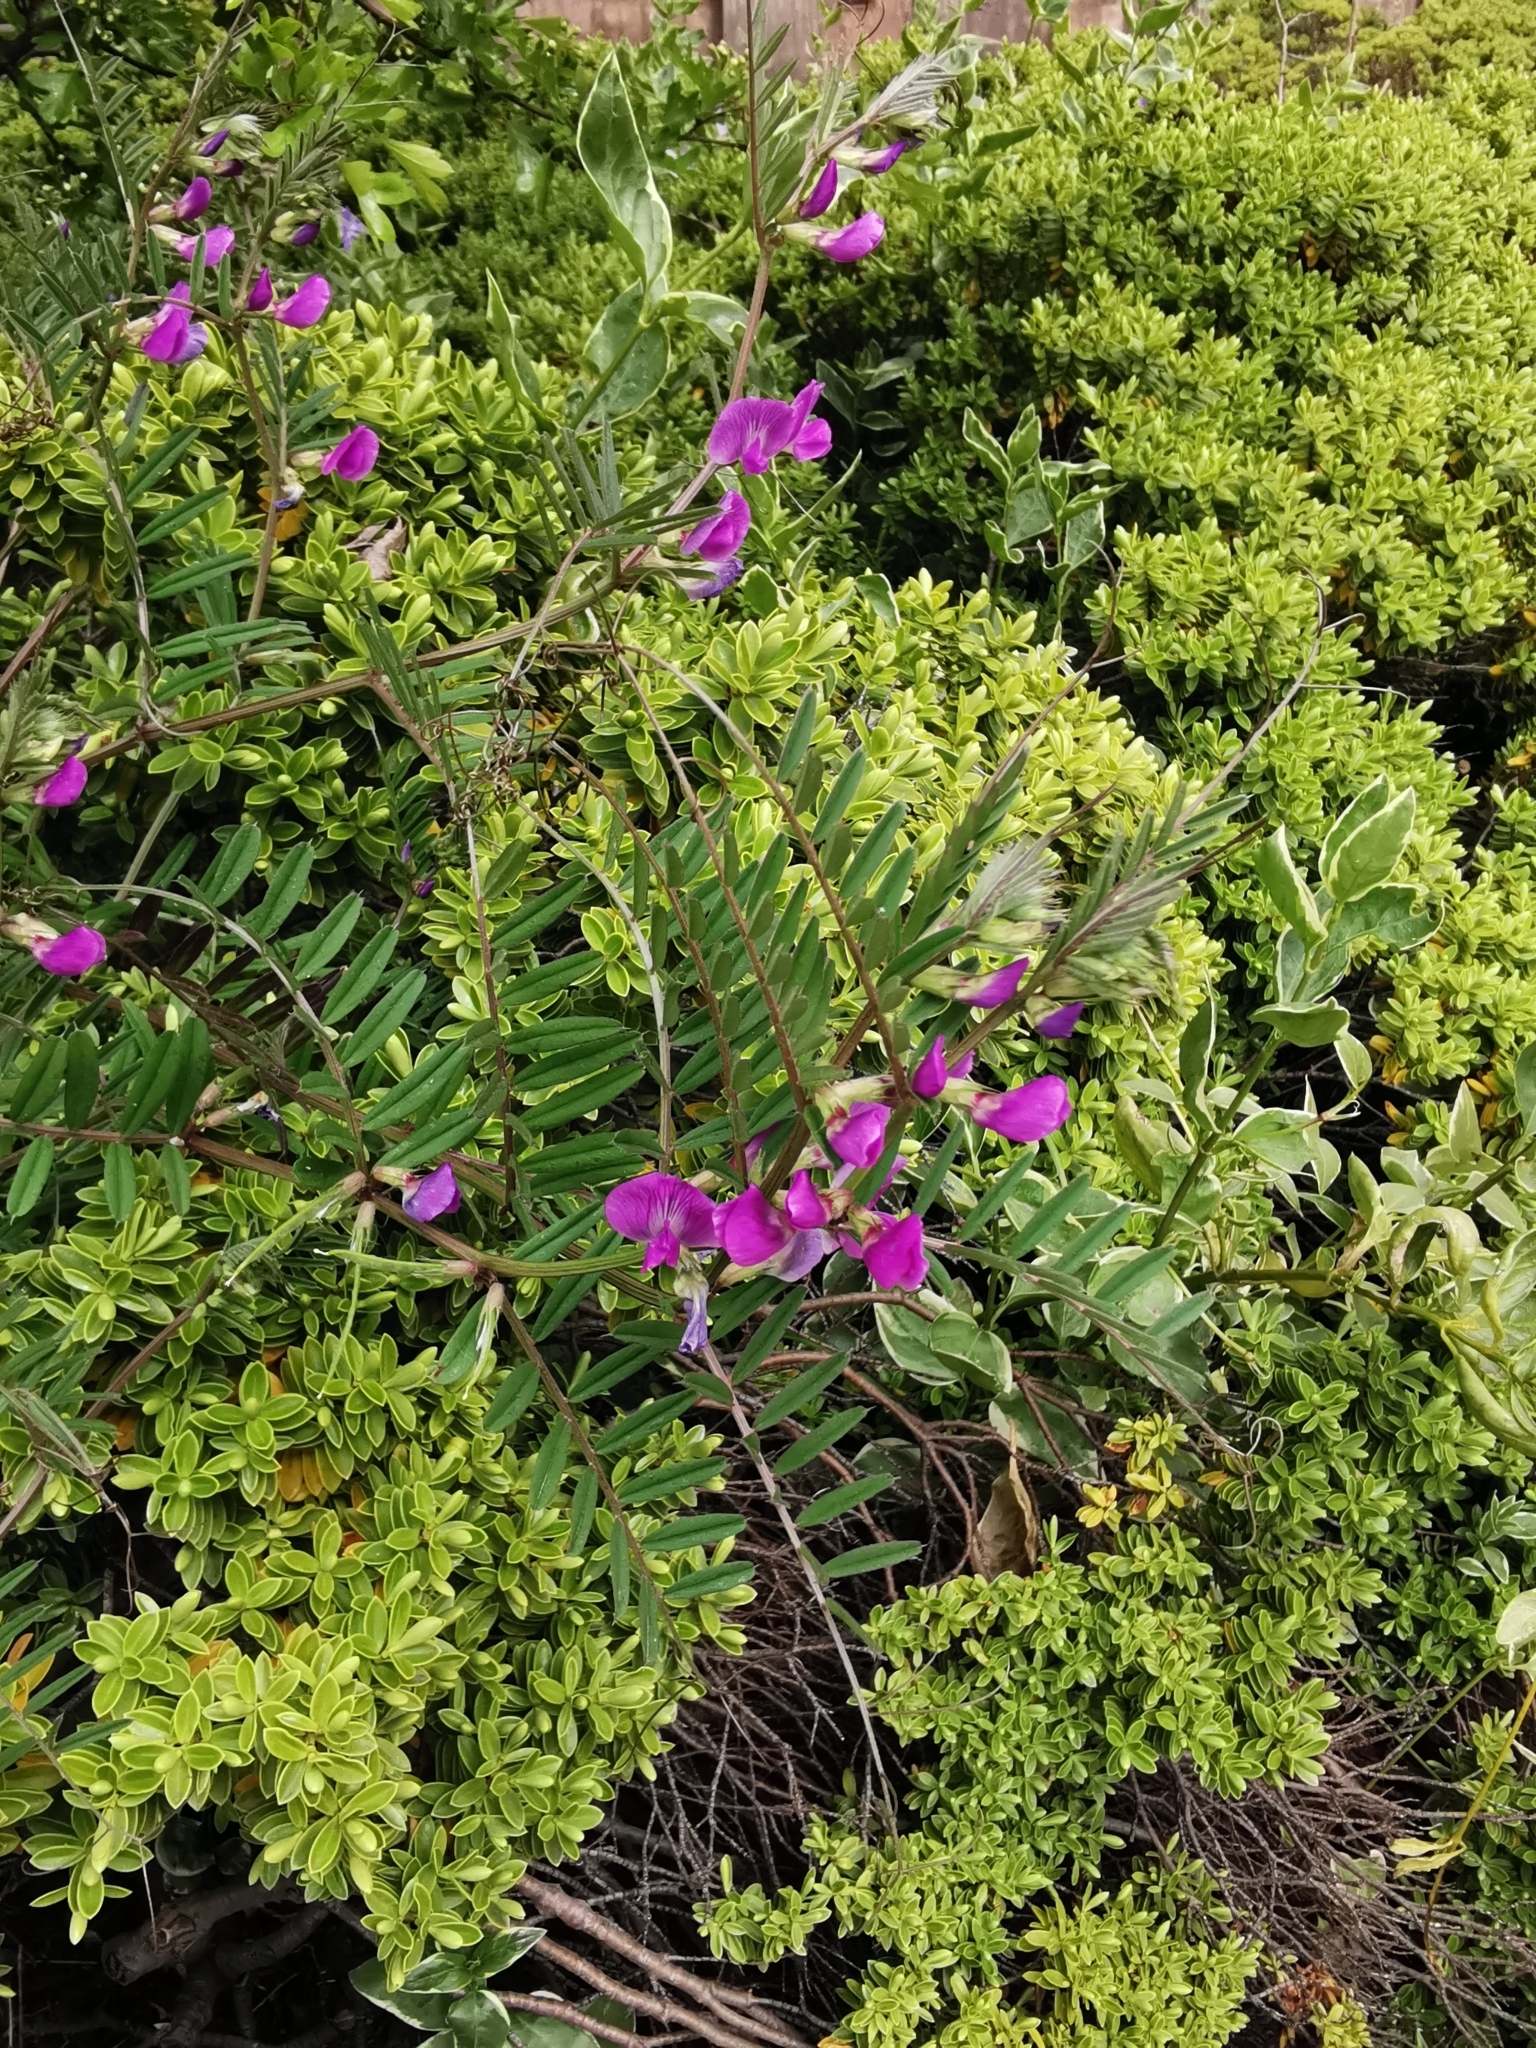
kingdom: Plantae
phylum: Tracheophyta
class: Magnoliopsida
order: Fabales
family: Fabaceae
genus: Vicia
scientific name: Vicia sativa
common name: Garden vetch
